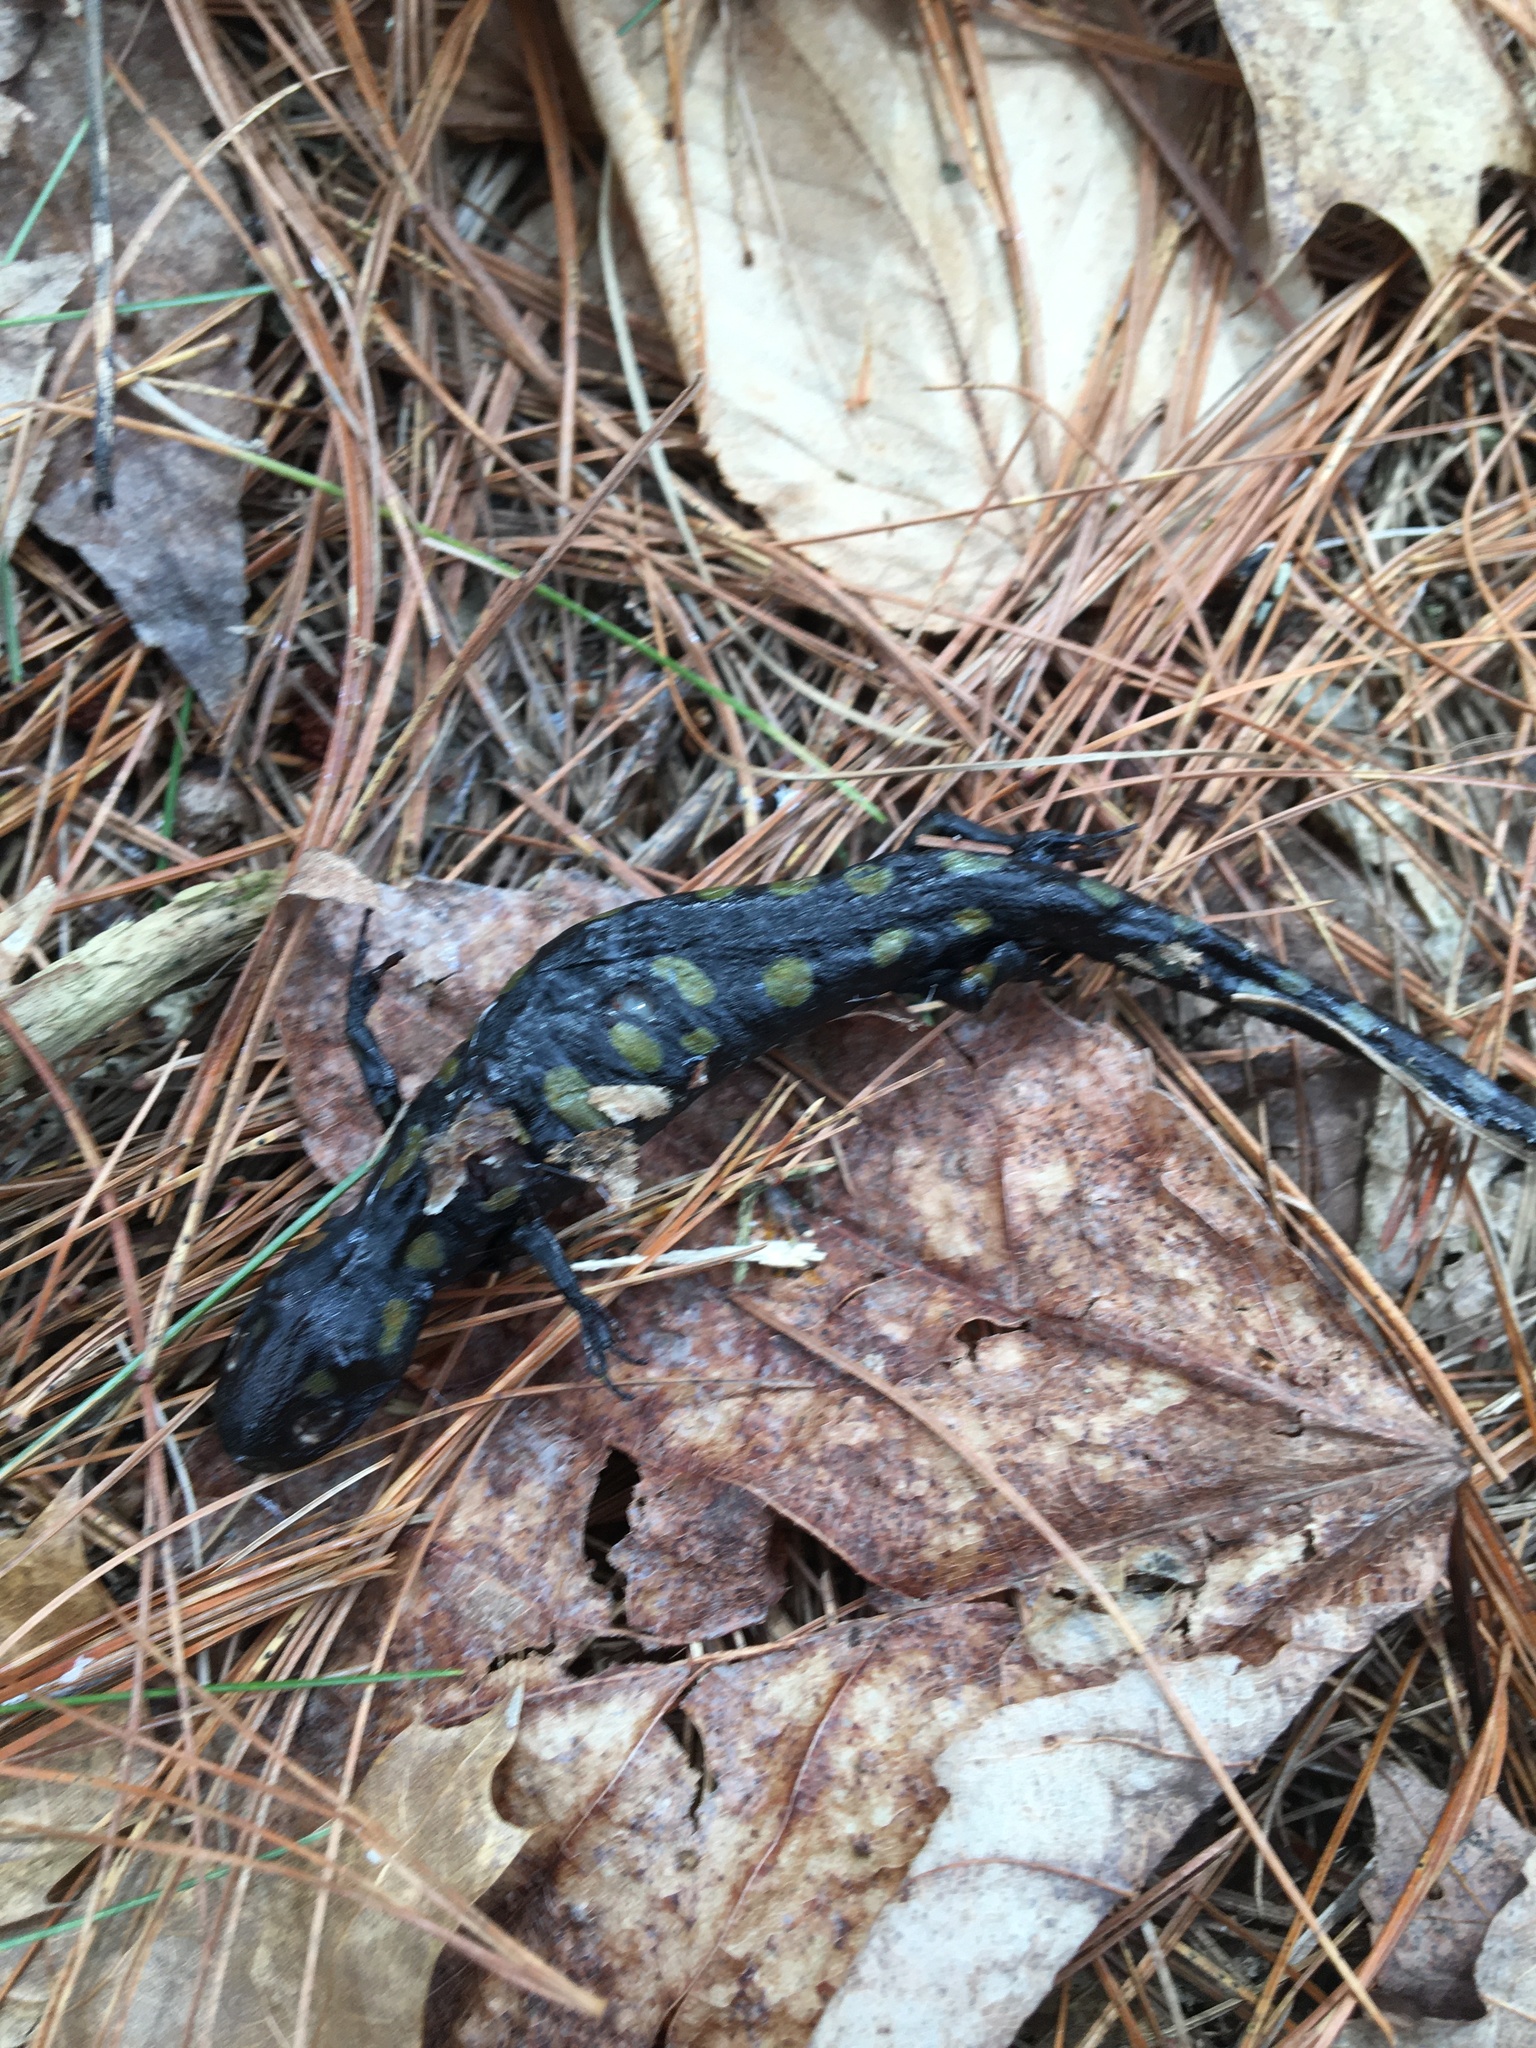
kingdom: Animalia
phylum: Chordata
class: Amphibia
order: Caudata
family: Ambystomatidae
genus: Ambystoma
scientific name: Ambystoma maculatum
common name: Spotted salamander
